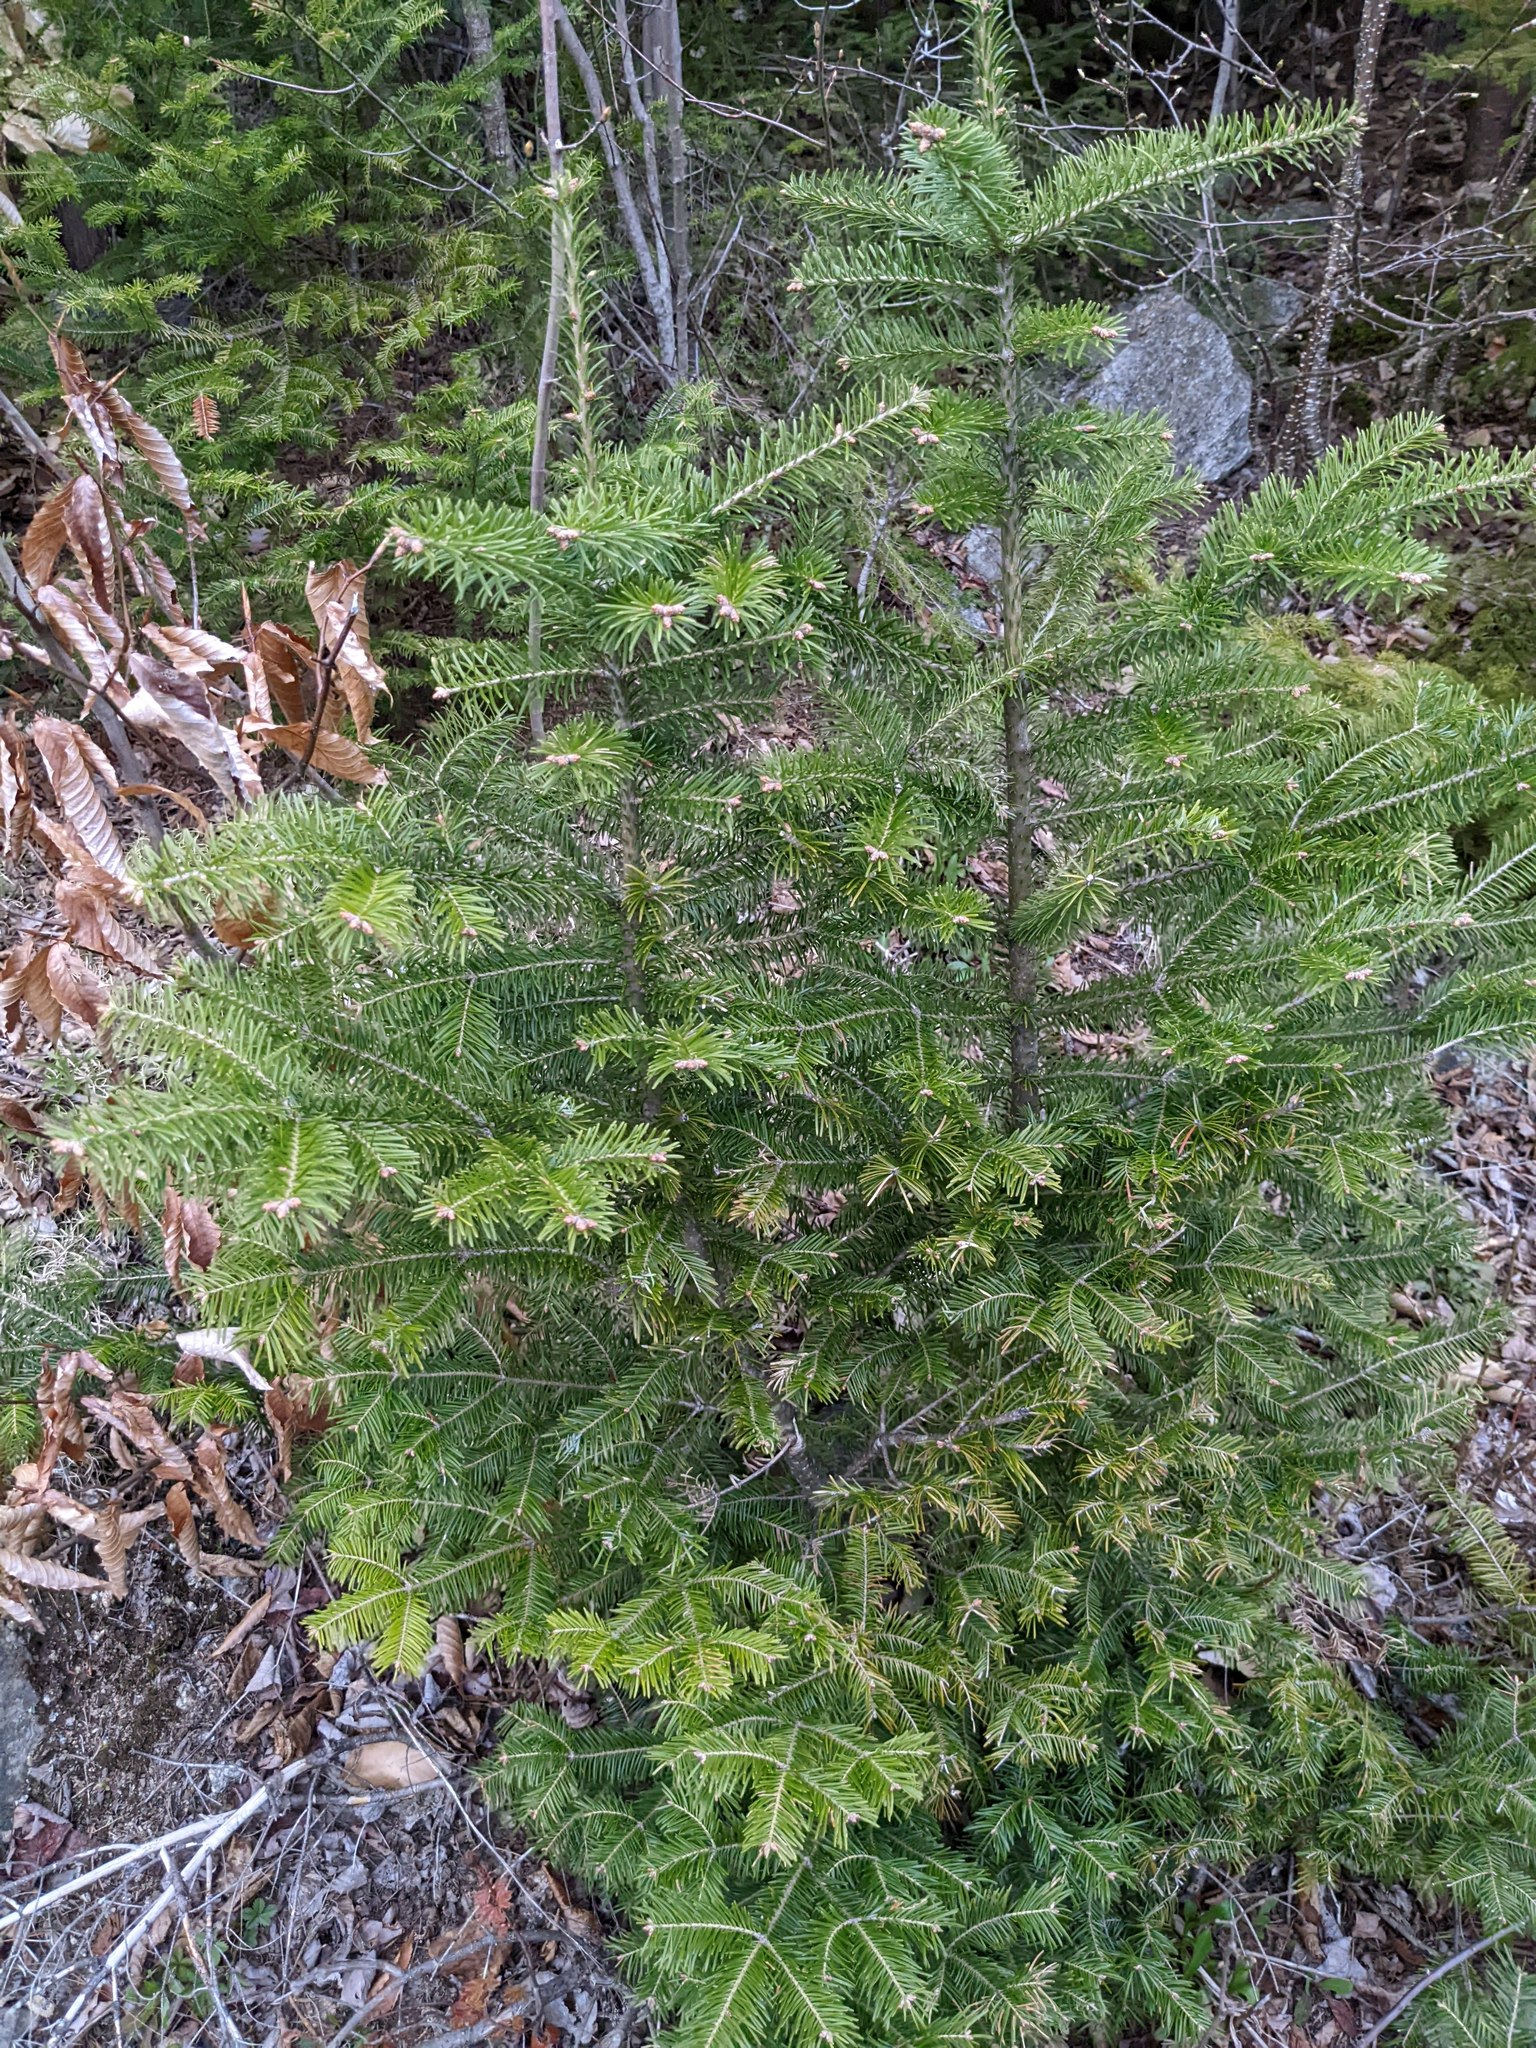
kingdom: Plantae
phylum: Tracheophyta
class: Pinopsida
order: Pinales
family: Pinaceae
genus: Abies
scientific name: Abies balsamea
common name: Balsam fir
